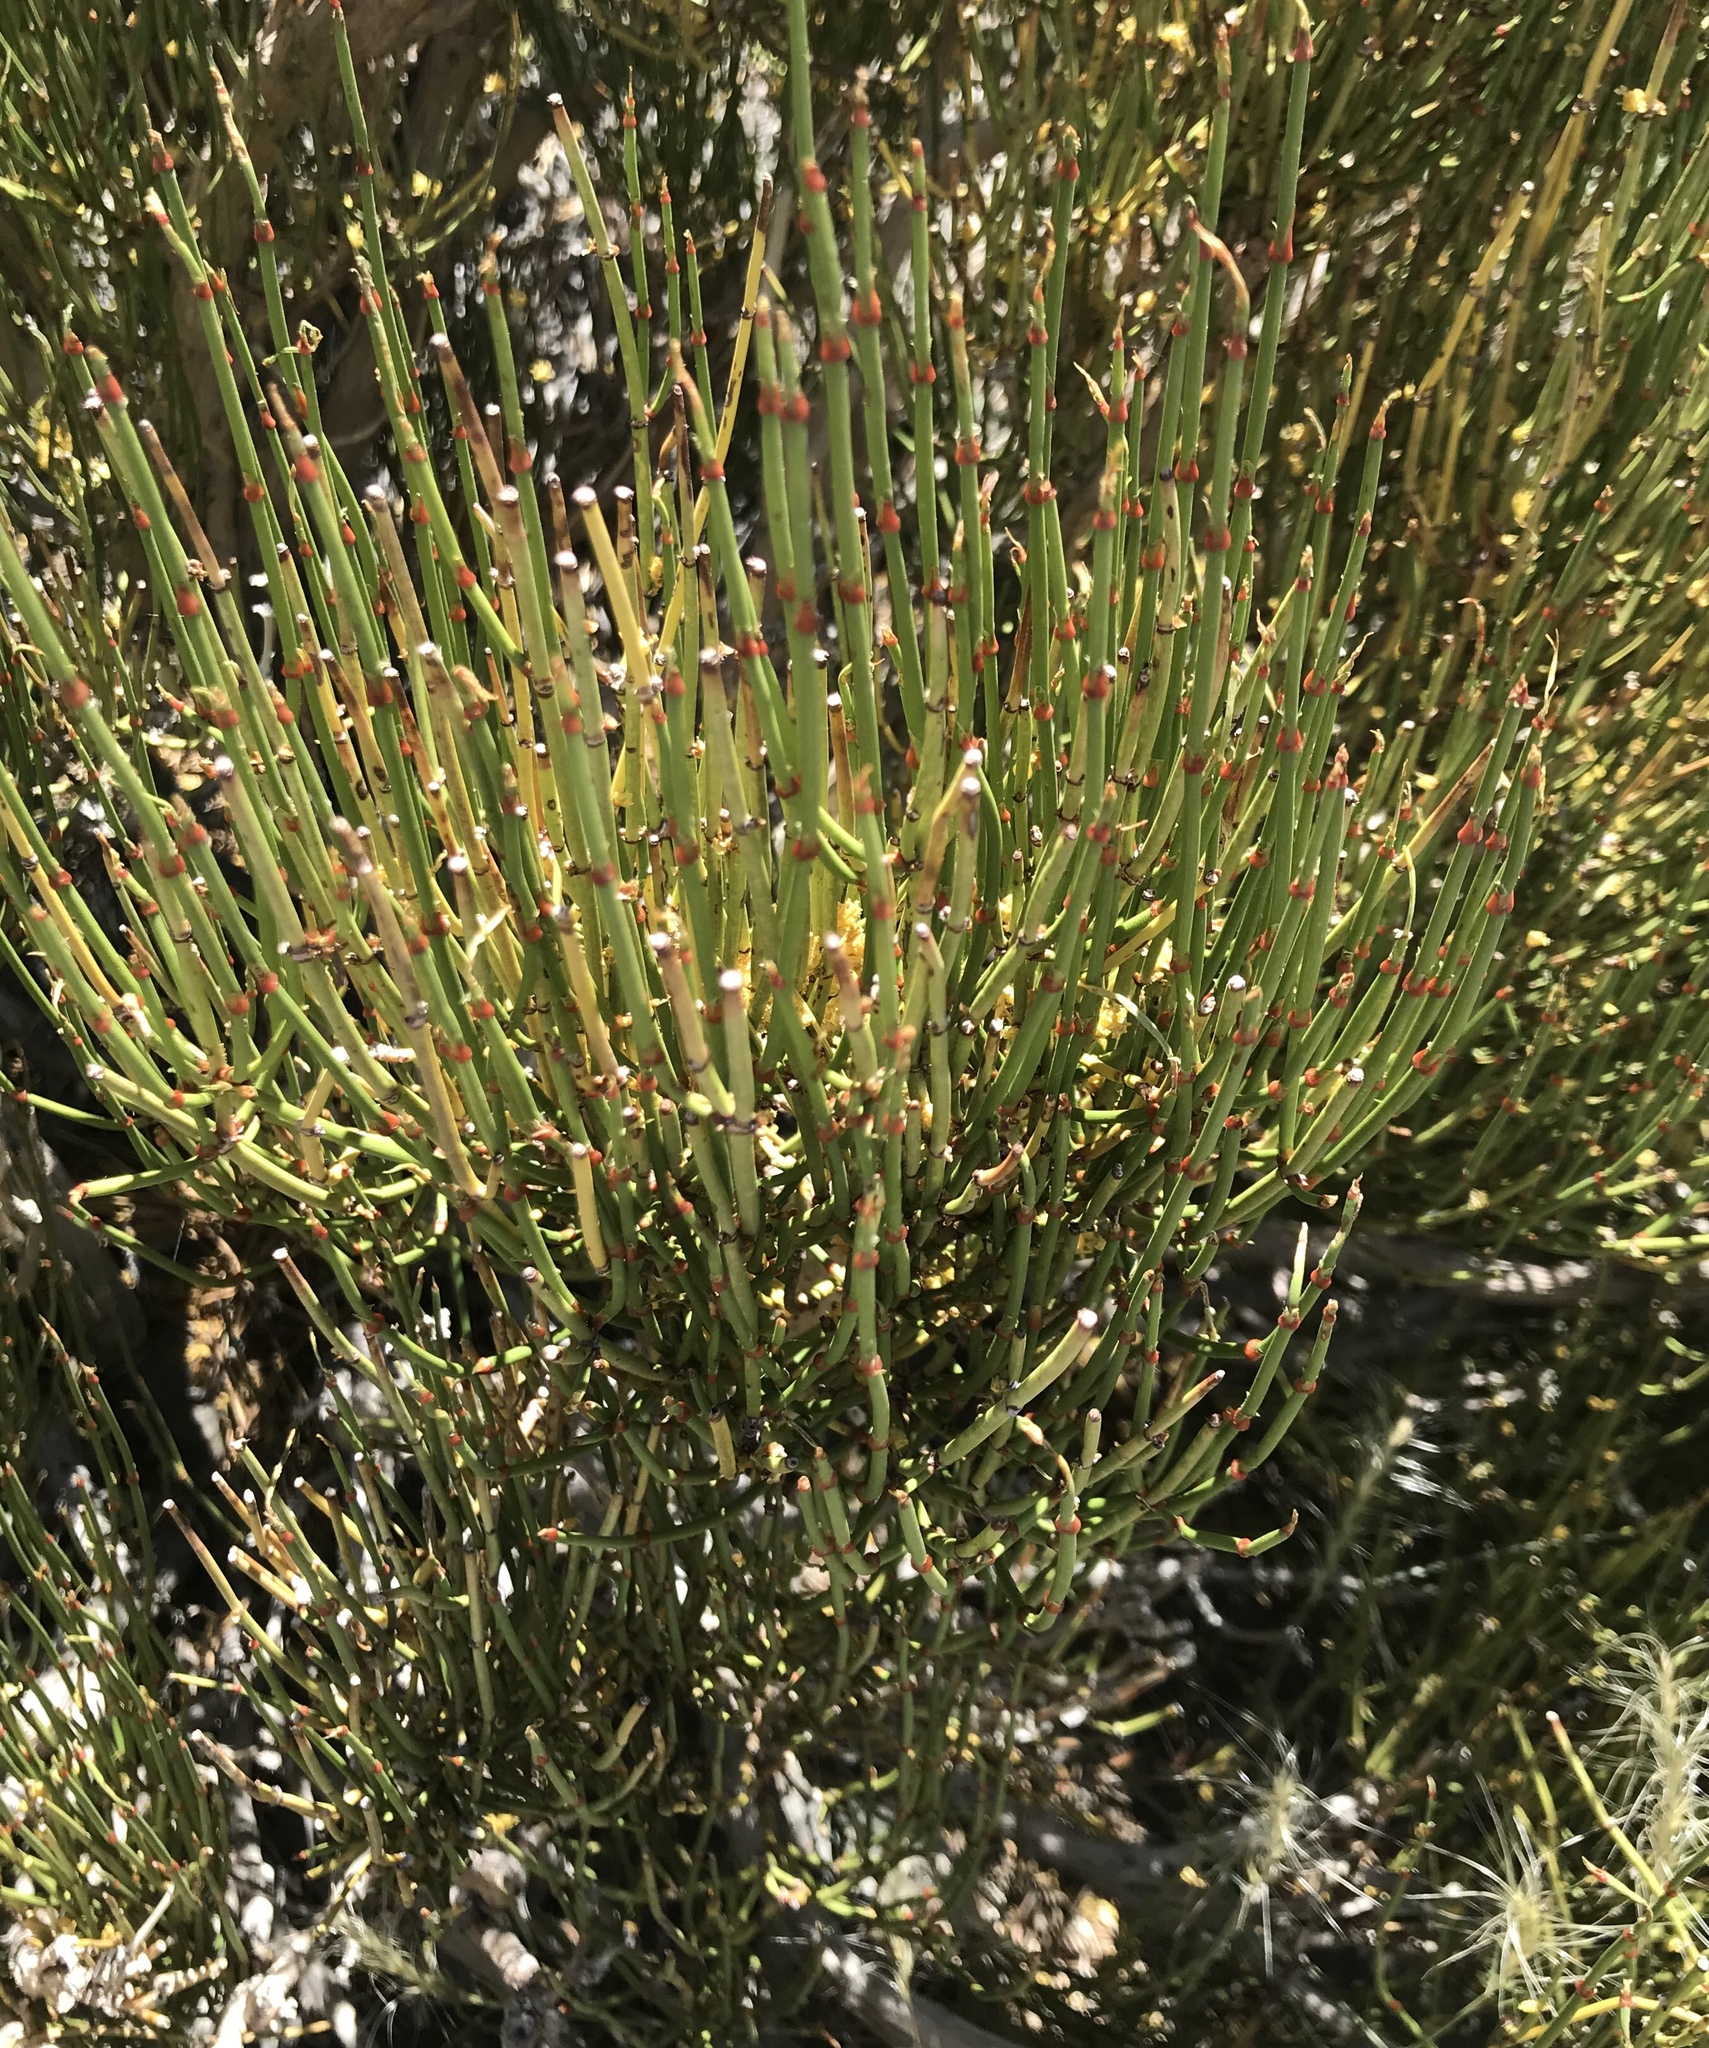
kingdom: Plantae
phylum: Tracheophyta
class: Gnetopsida
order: Ephedrales
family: Ephedraceae
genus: Ephedra
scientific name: Ephedra viridis
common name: Green ephedra
